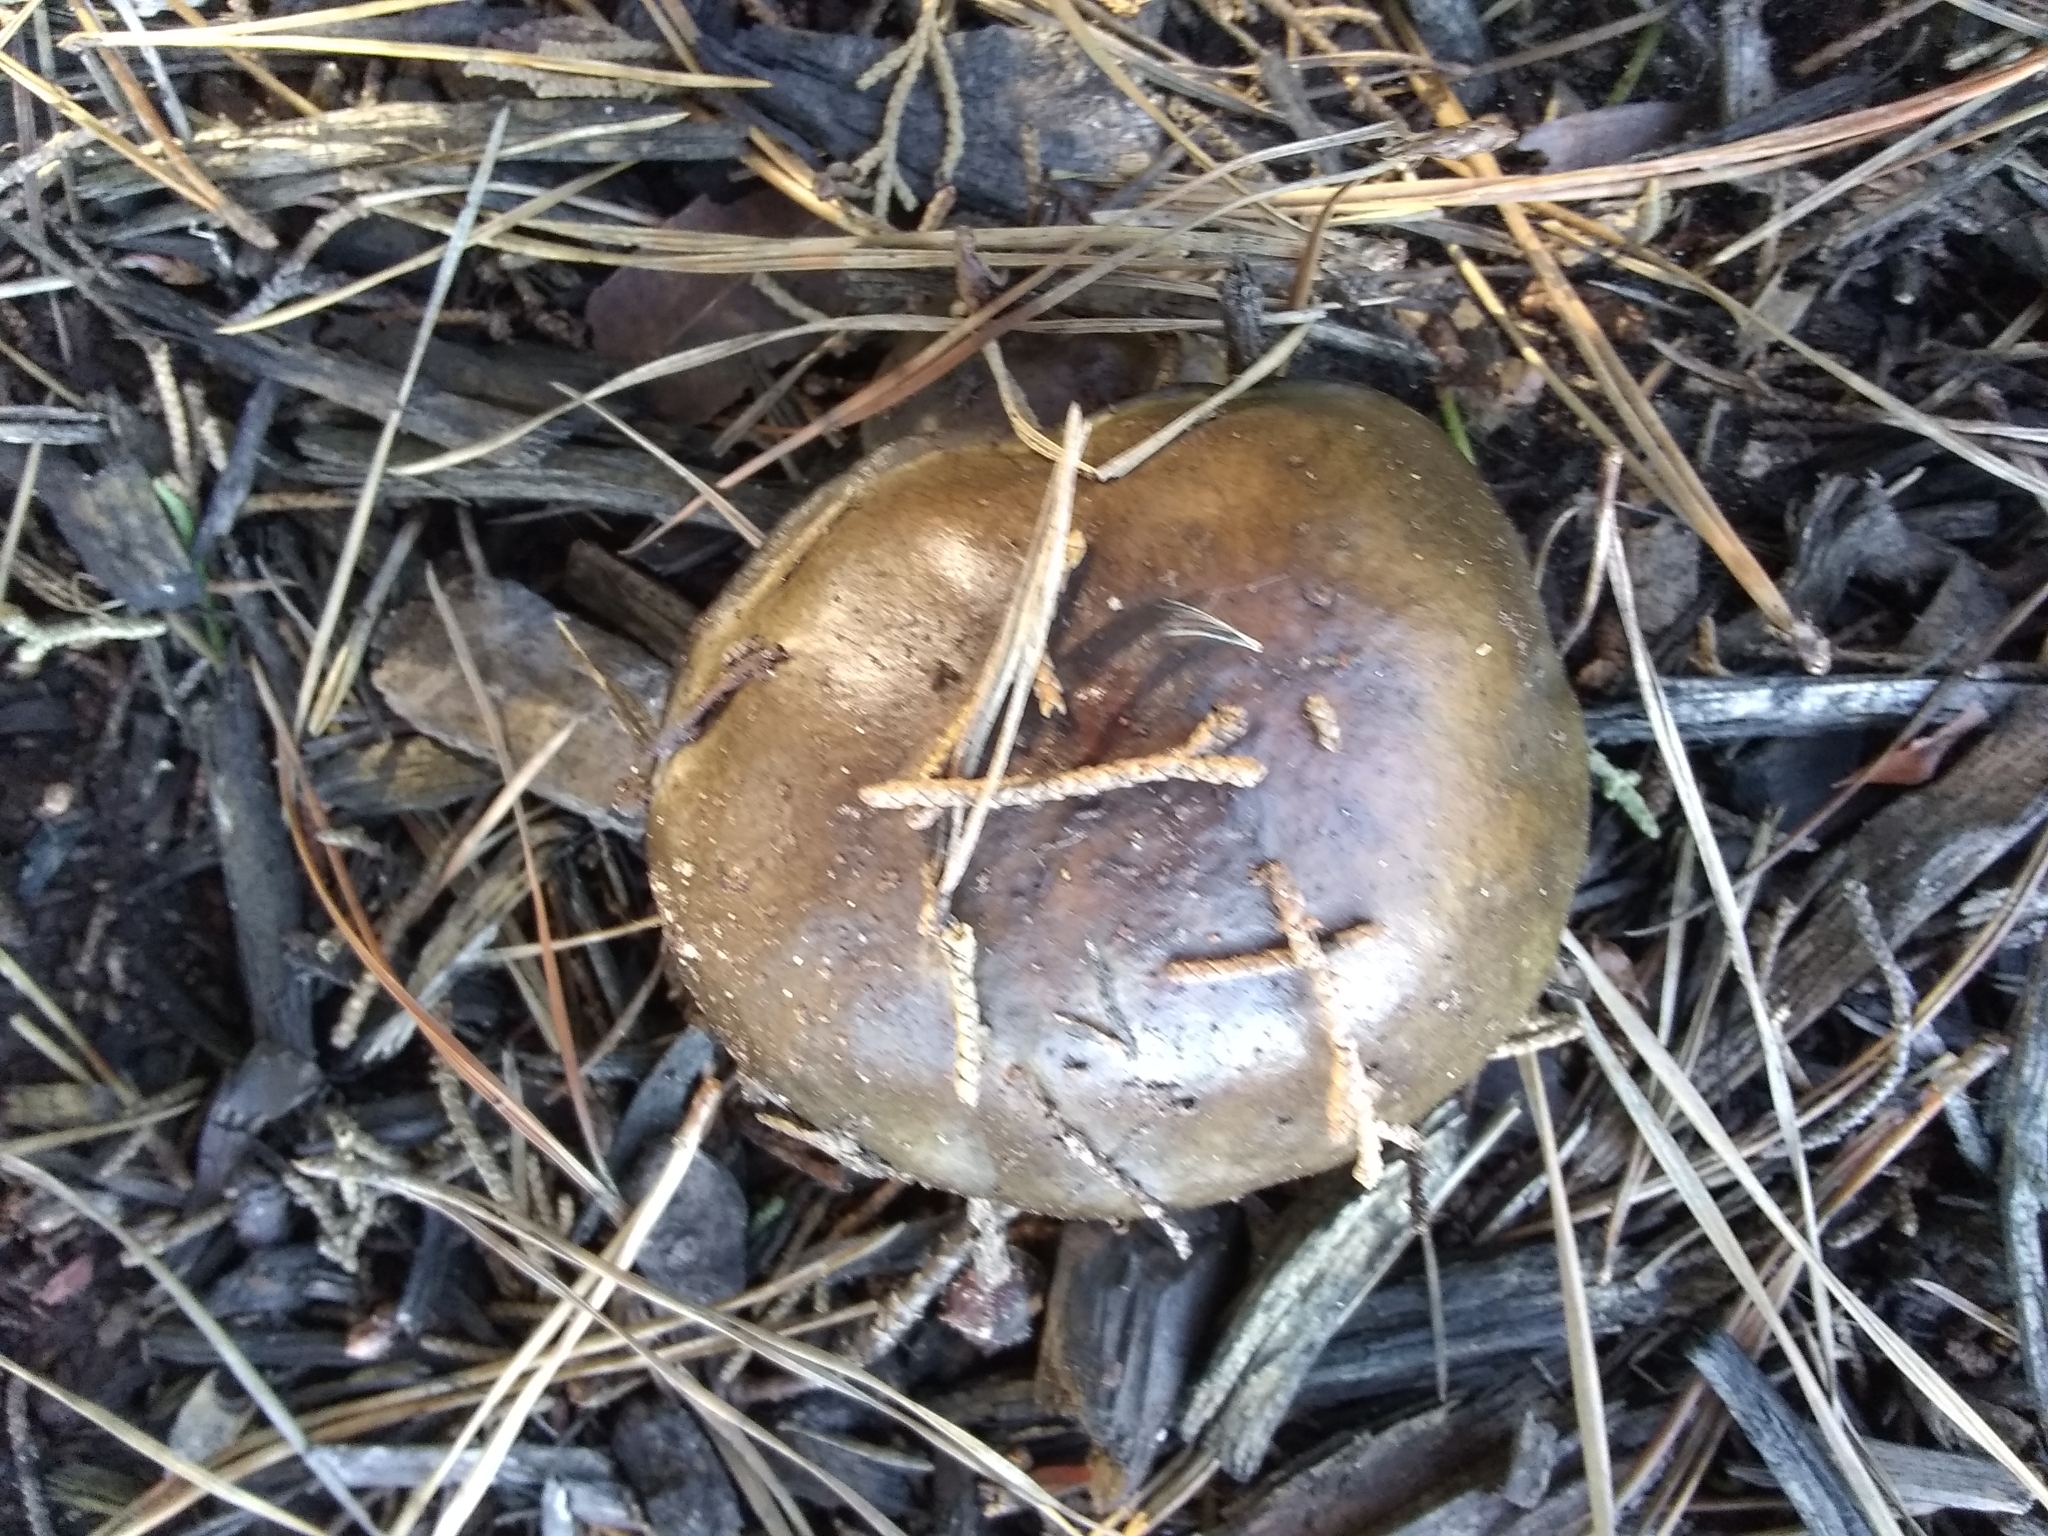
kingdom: Fungi
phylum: Basidiomycota
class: Agaricomycetes
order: Boletales
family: Suillaceae
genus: Suillus
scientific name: Suillus pungens
